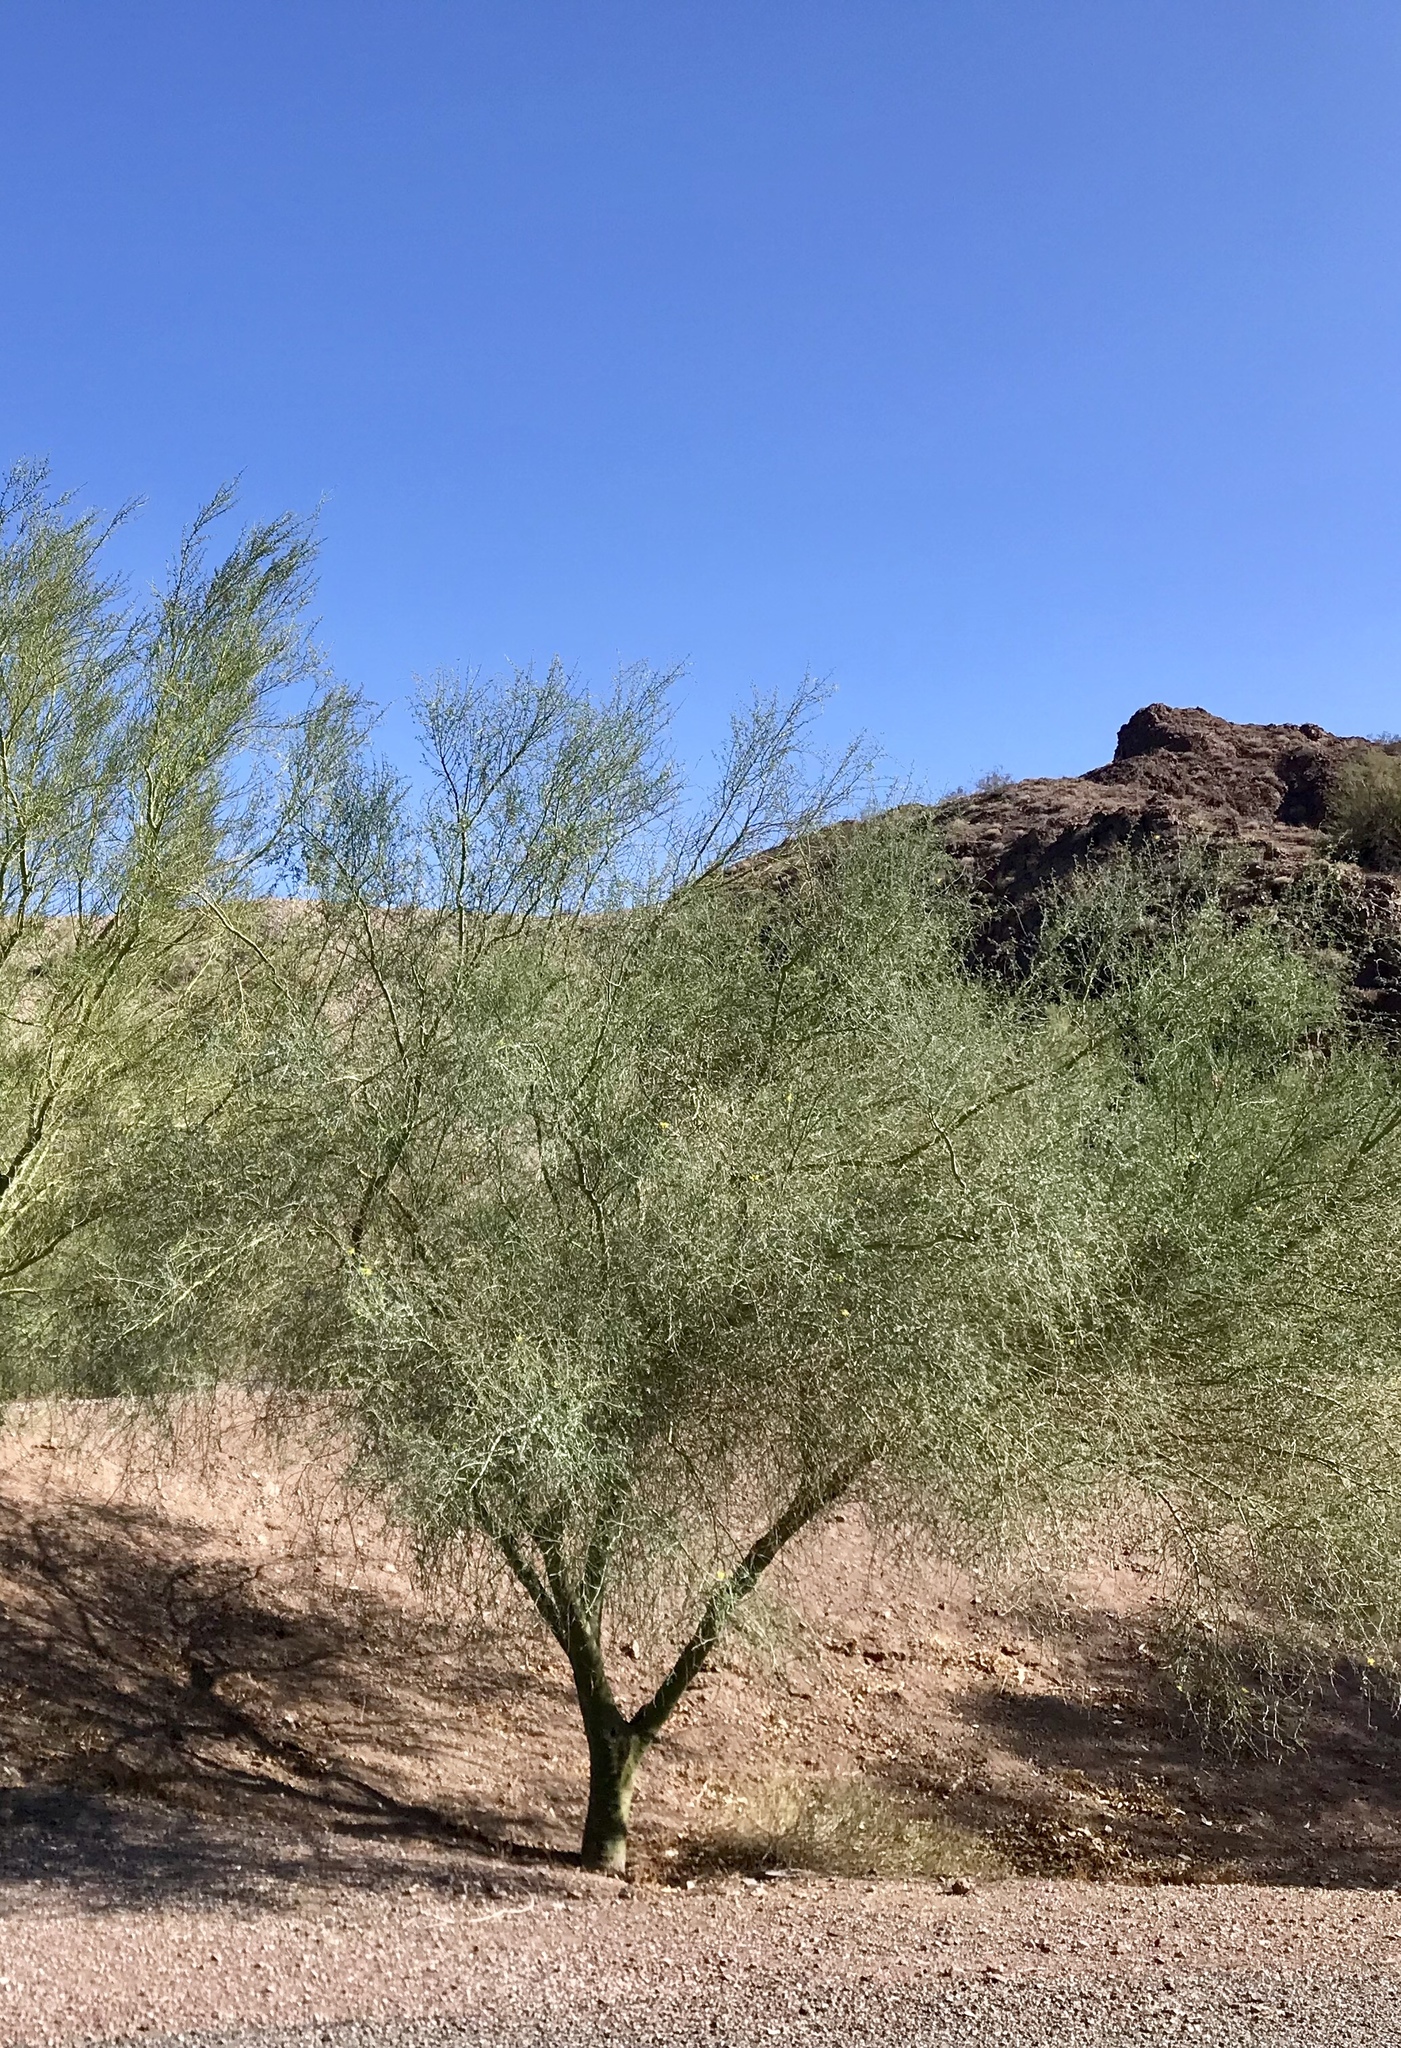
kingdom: Plantae
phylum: Tracheophyta
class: Magnoliopsida
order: Fabales
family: Fabaceae
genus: Parkinsonia
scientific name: Parkinsonia florida
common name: Blue paloverde
